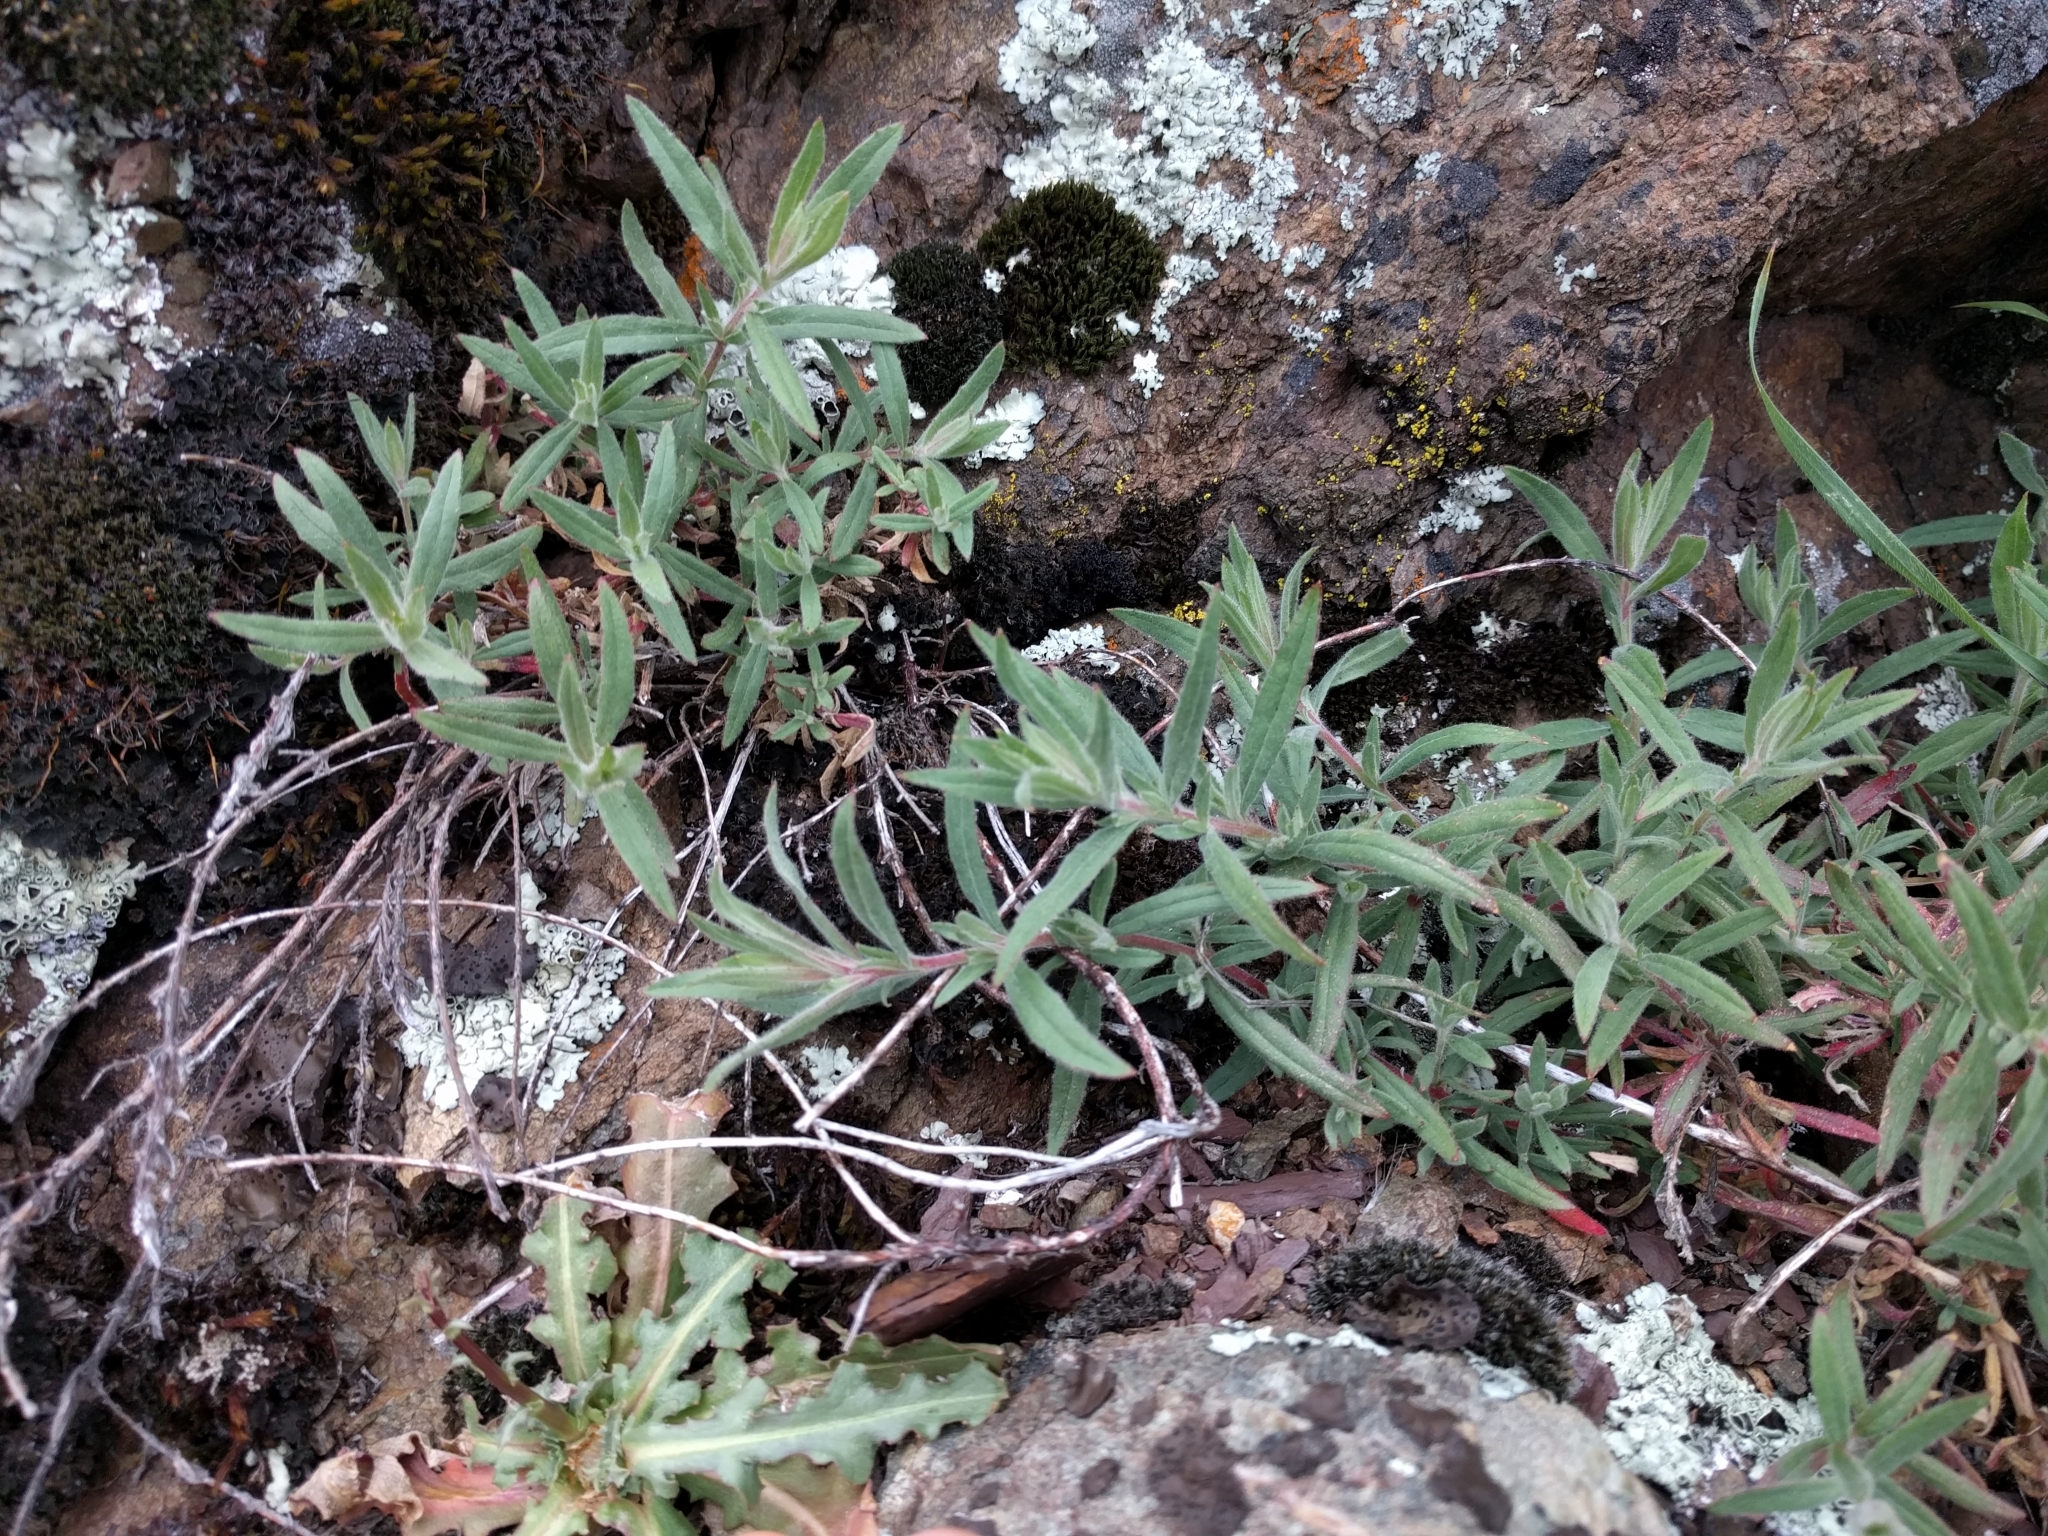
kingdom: Plantae
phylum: Tracheophyta
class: Magnoliopsida
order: Myrtales
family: Onagraceae
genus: Epilobium
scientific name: Epilobium canum
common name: California-fuchsia
